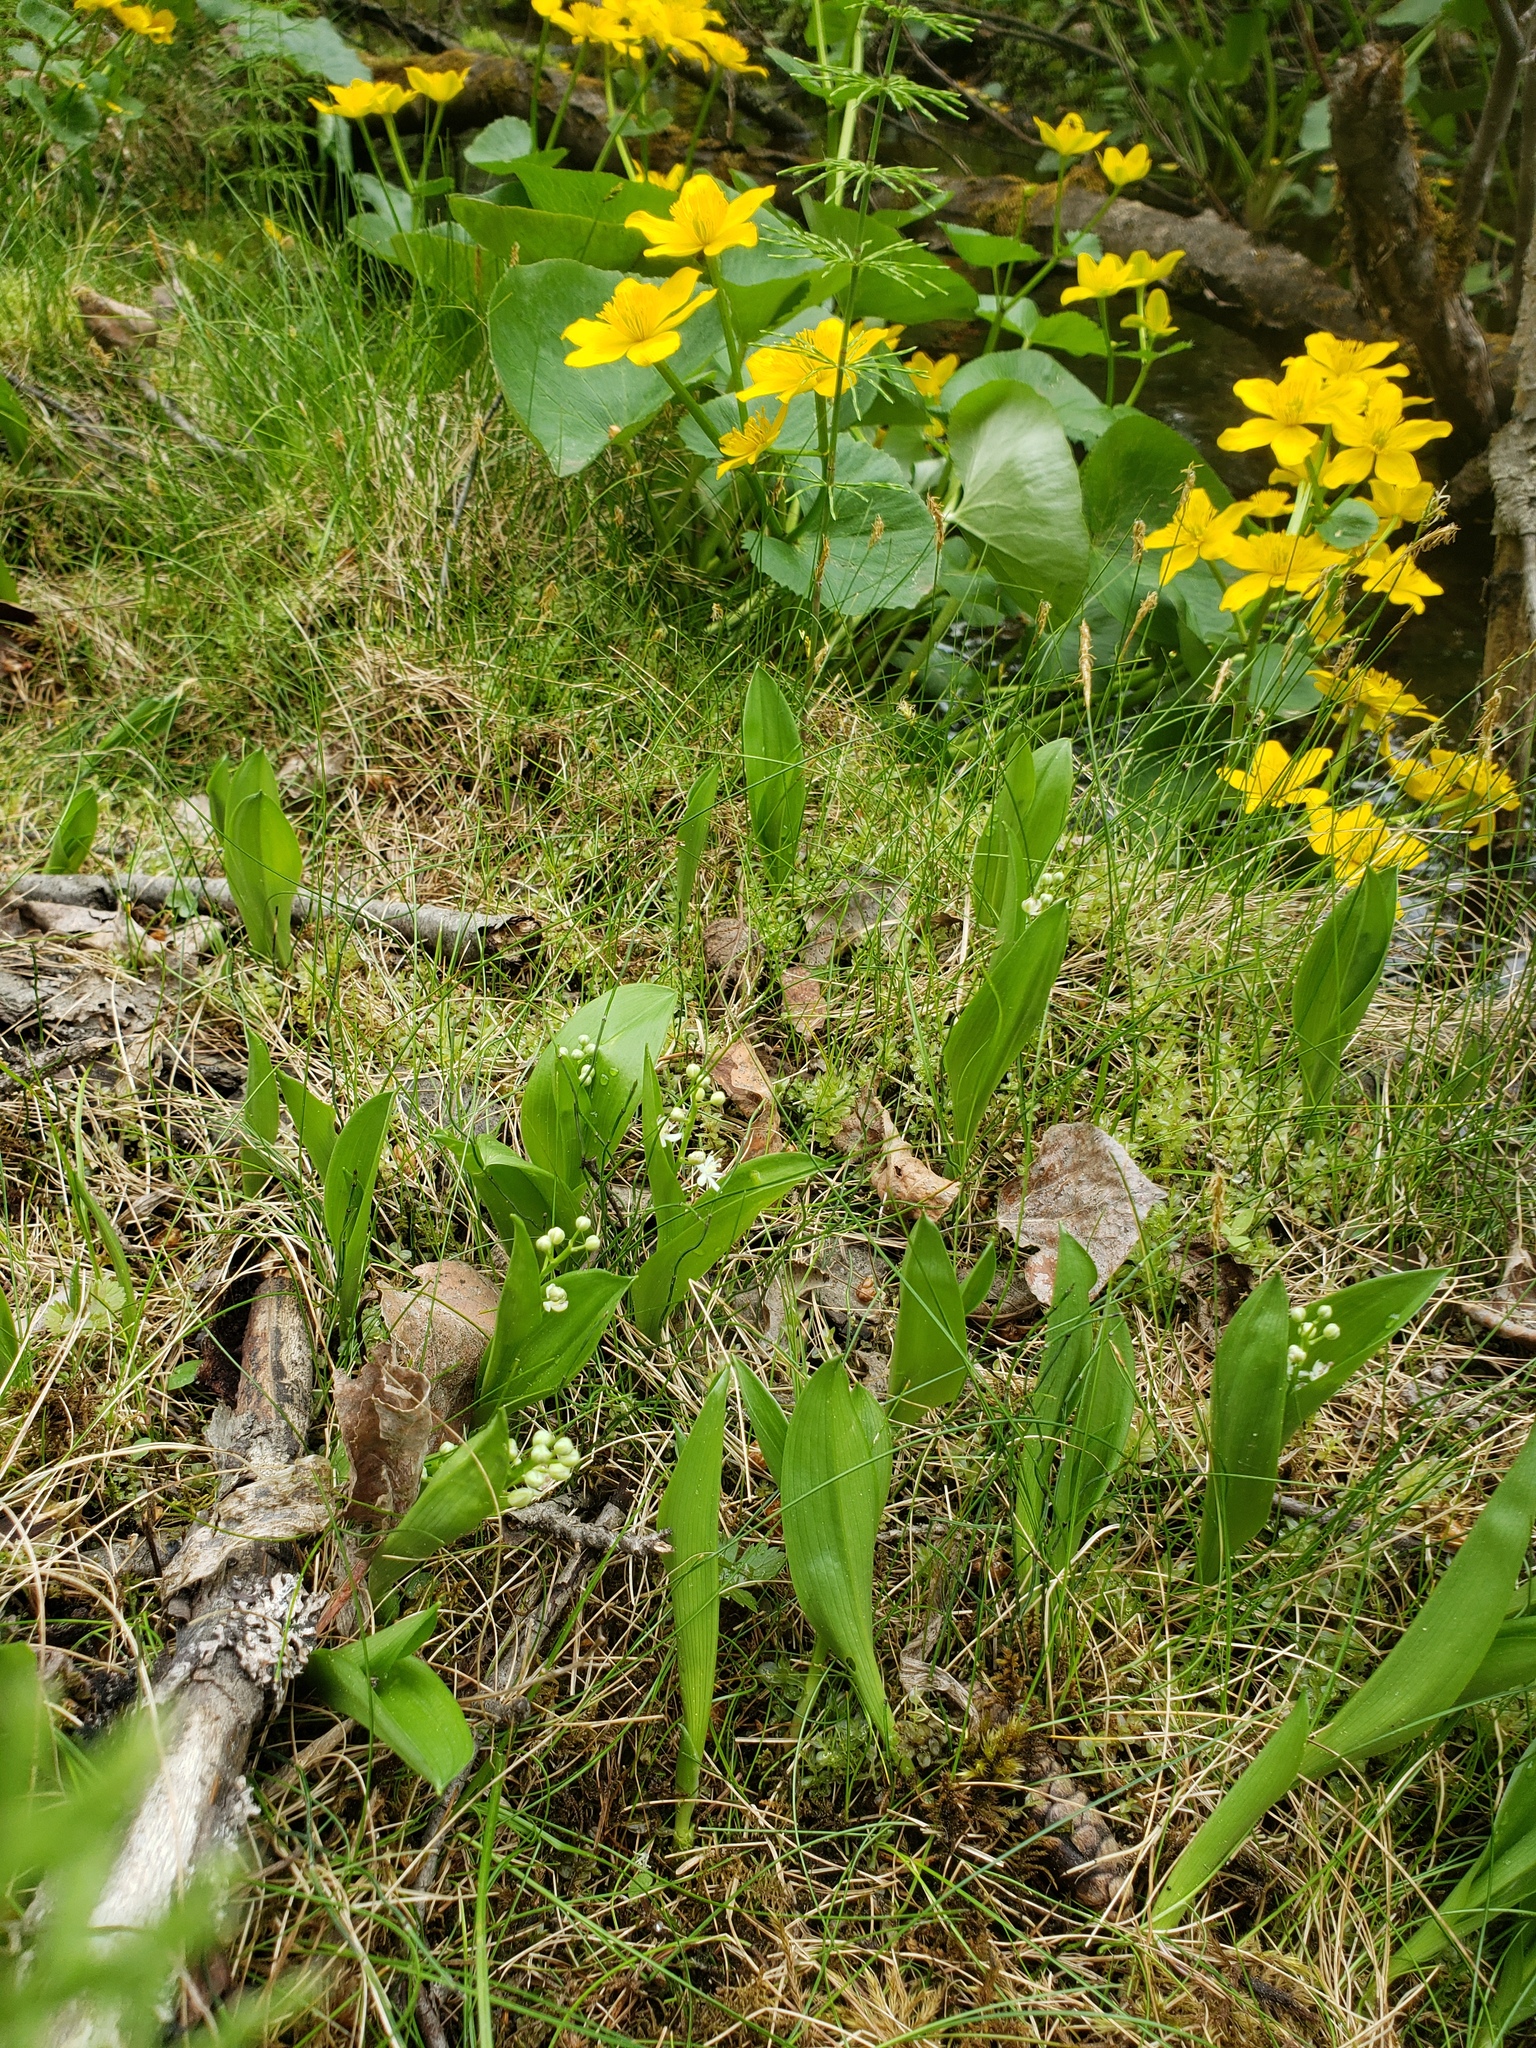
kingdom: Plantae
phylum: Tracheophyta
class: Liliopsida
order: Asparagales
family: Asparagaceae
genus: Maianthemum
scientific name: Maianthemum trifolium
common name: Swamp false solomon's seal
